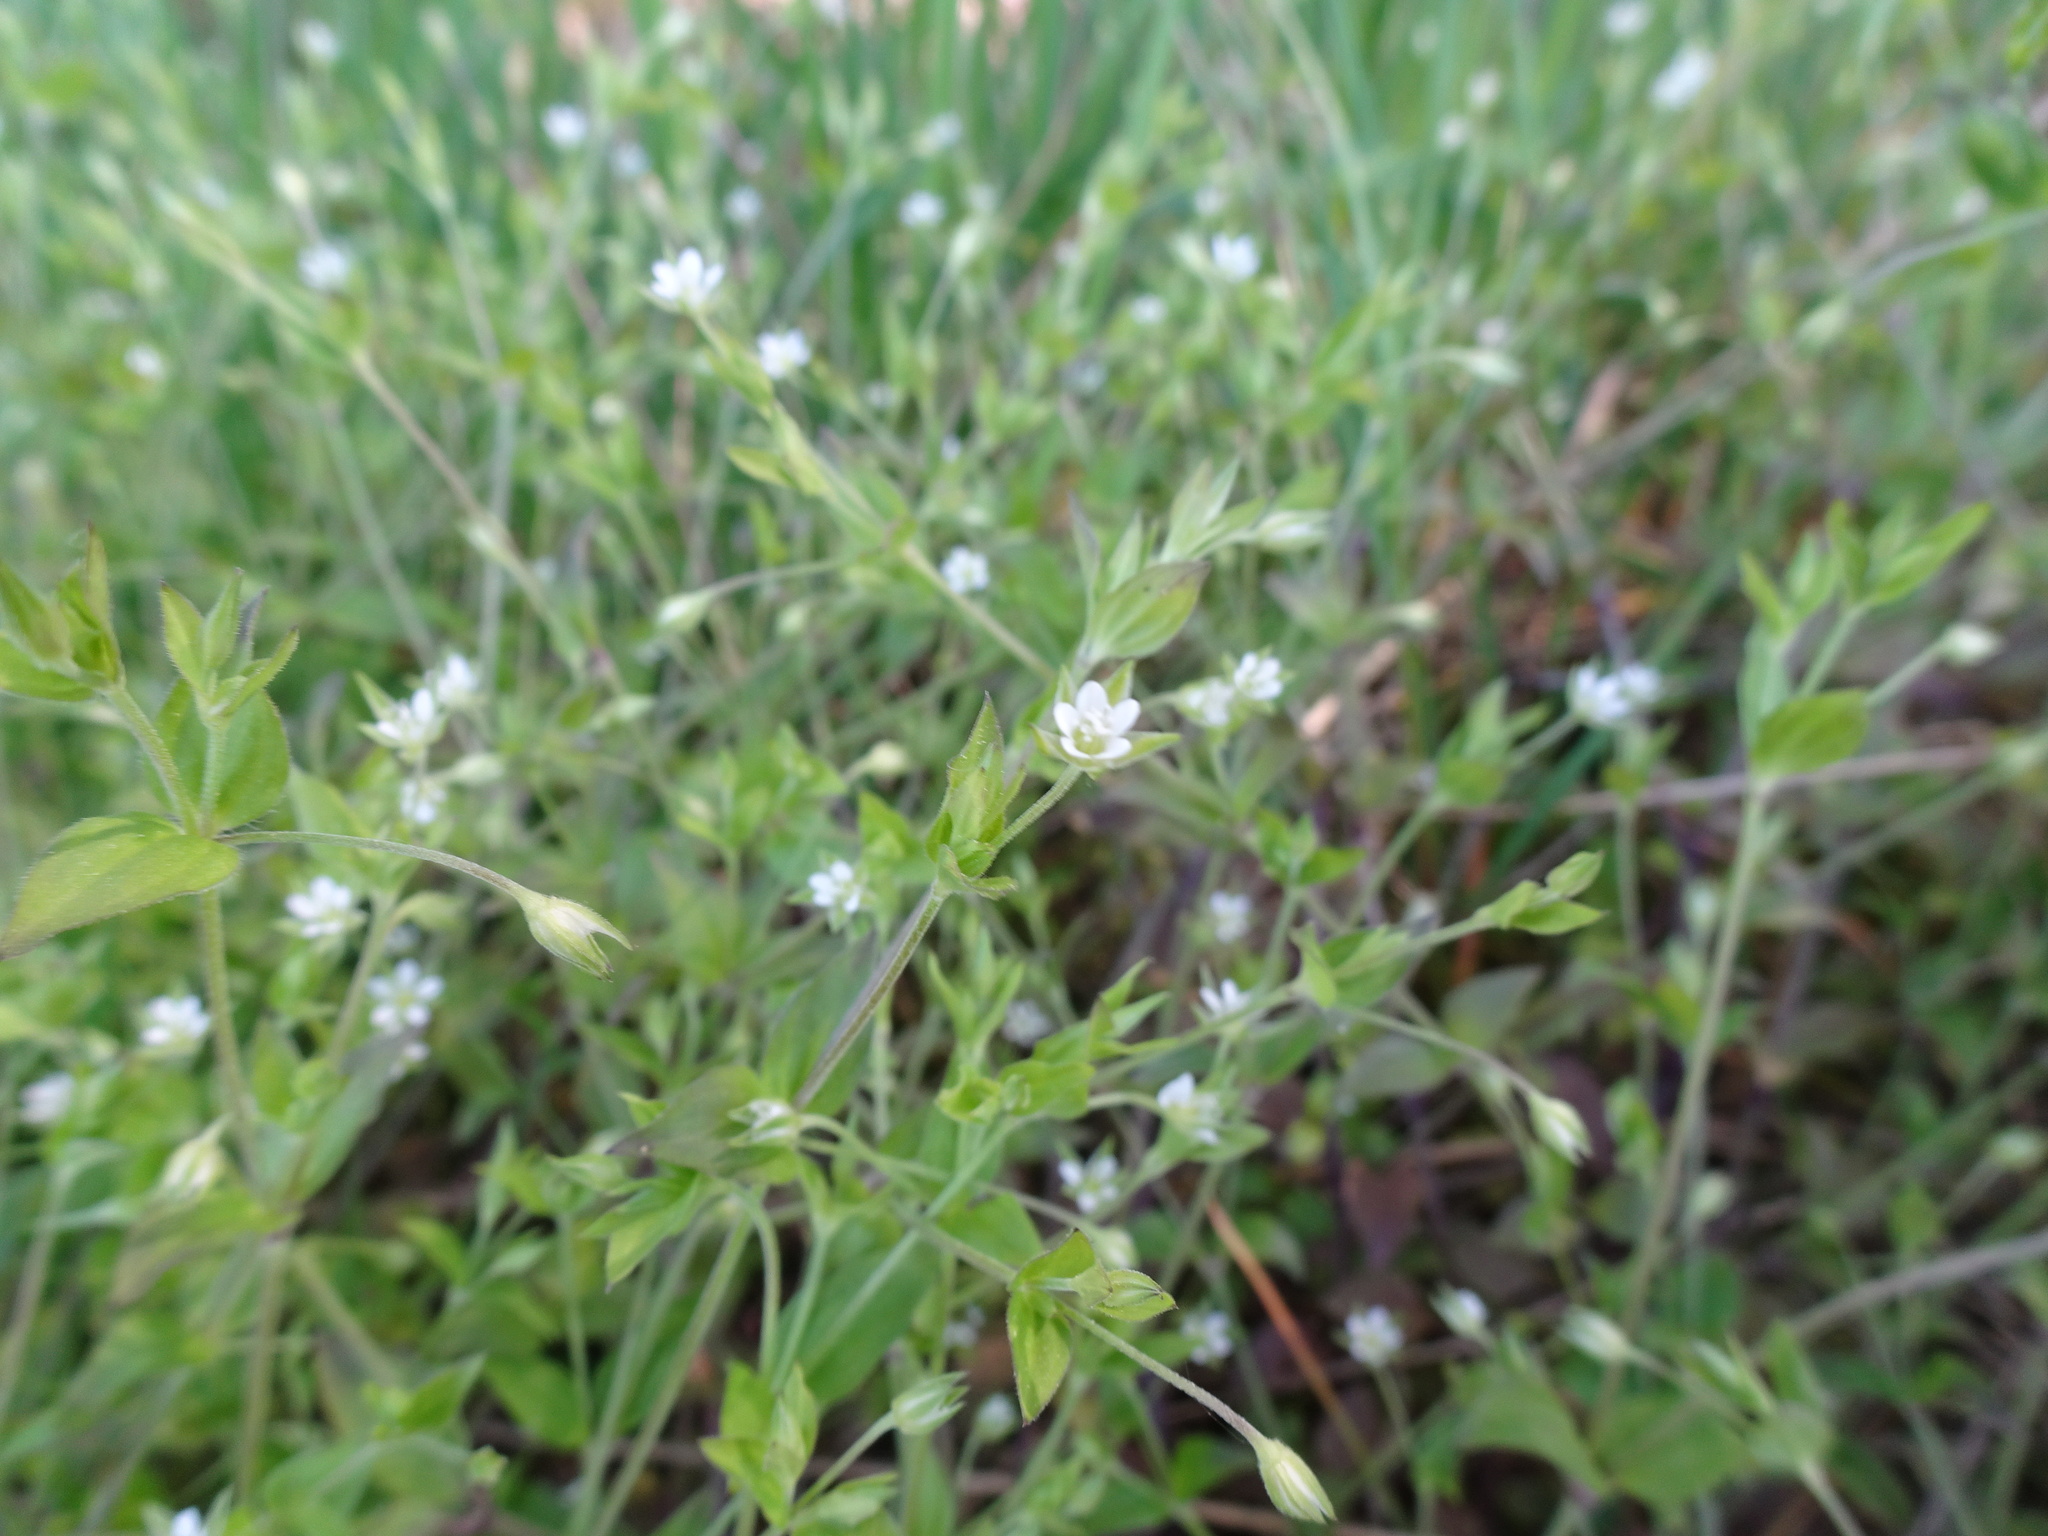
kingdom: Plantae
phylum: Tracheophyta
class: Magnoliopsida
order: Caryophyllales
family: Caryophyllaceae
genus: Moehringia
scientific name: Moehringia trinervia
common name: Three-nerved sandwort
